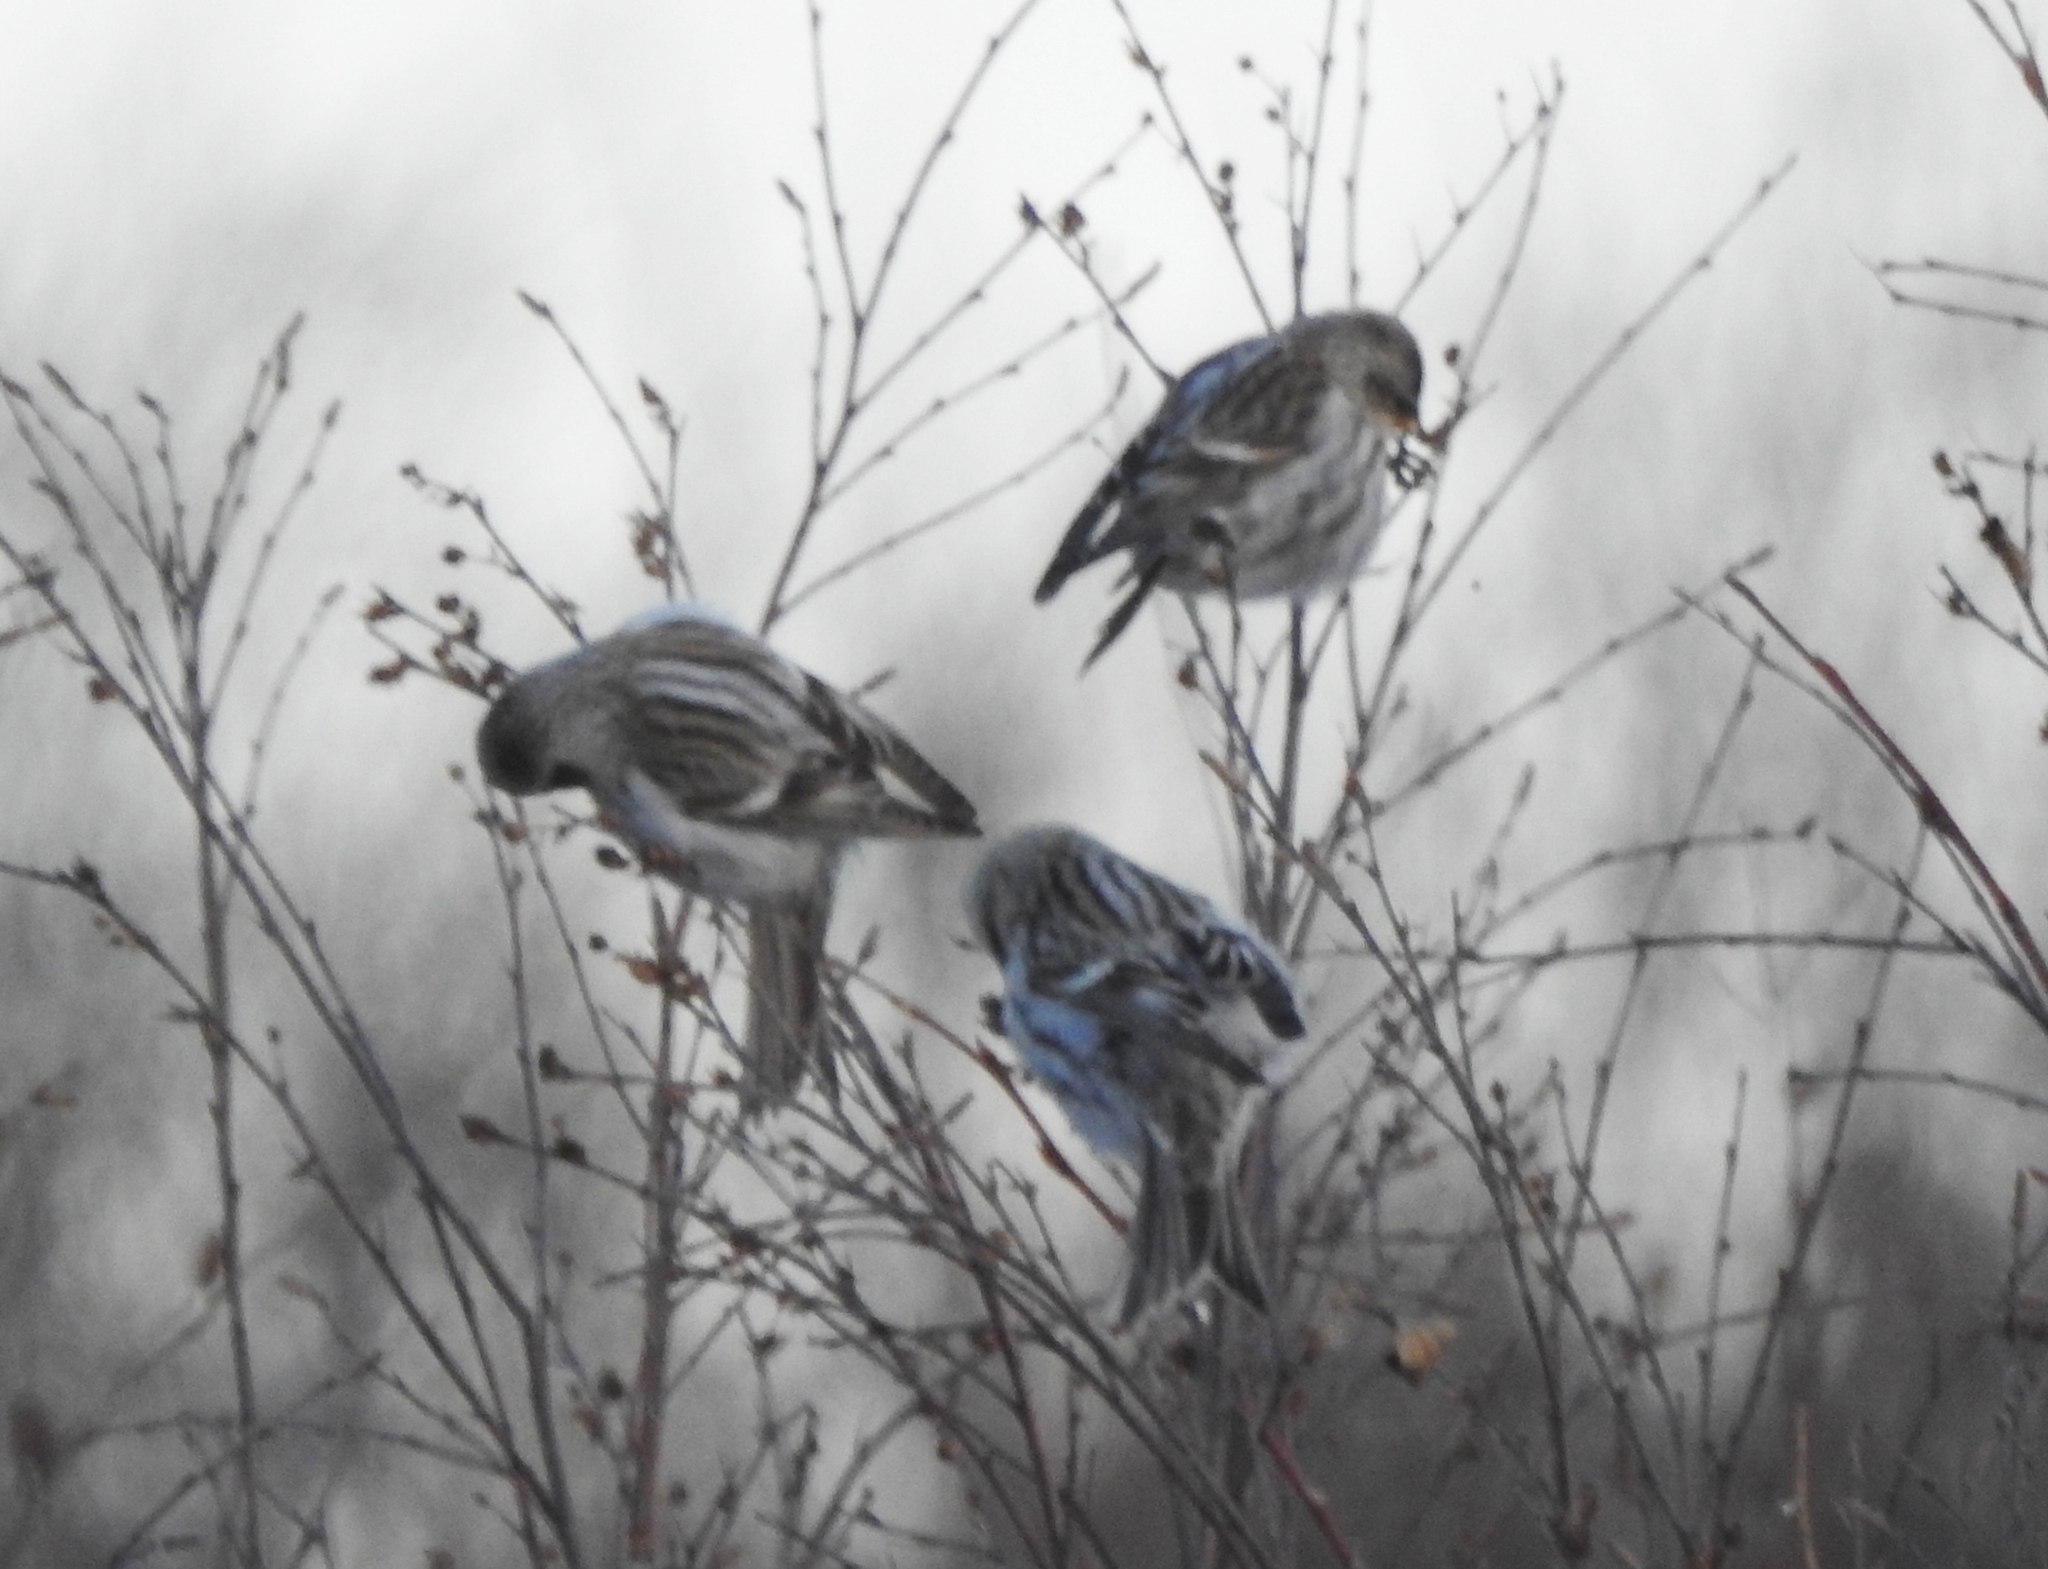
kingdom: Animalia
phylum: Chordata
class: Aves
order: Passeriformes
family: Fringillidae
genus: Acanthis
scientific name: Acanthis flammea
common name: Common redpoll
